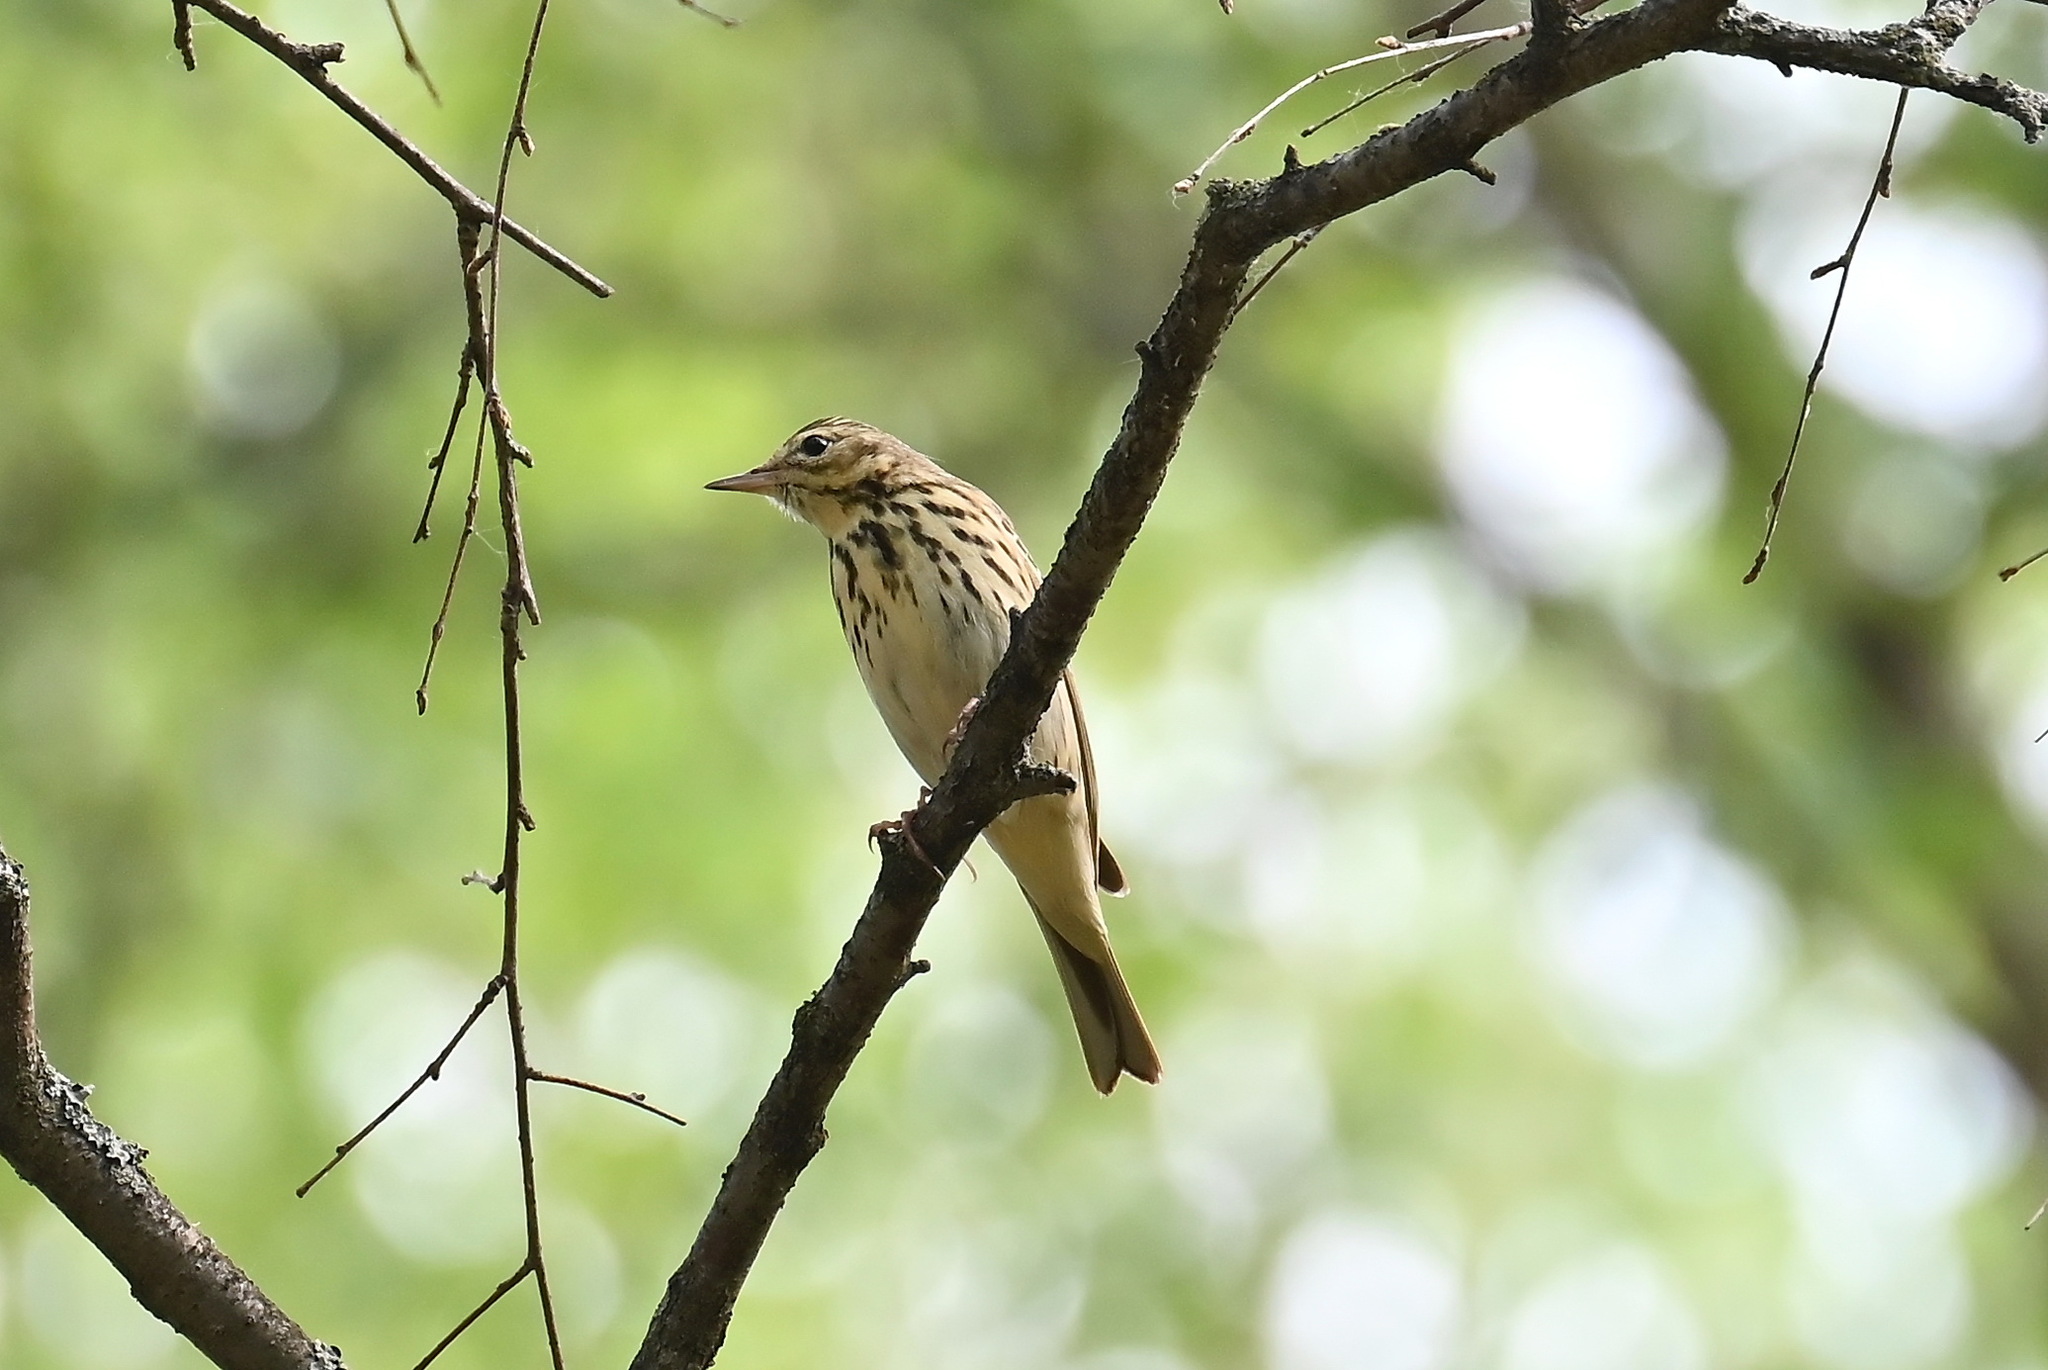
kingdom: Animalia
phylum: Chordata
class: Aves
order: Passeriformes
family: Motacillidae
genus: Anthus
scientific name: Anthus trivialis
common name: Tree pipit
